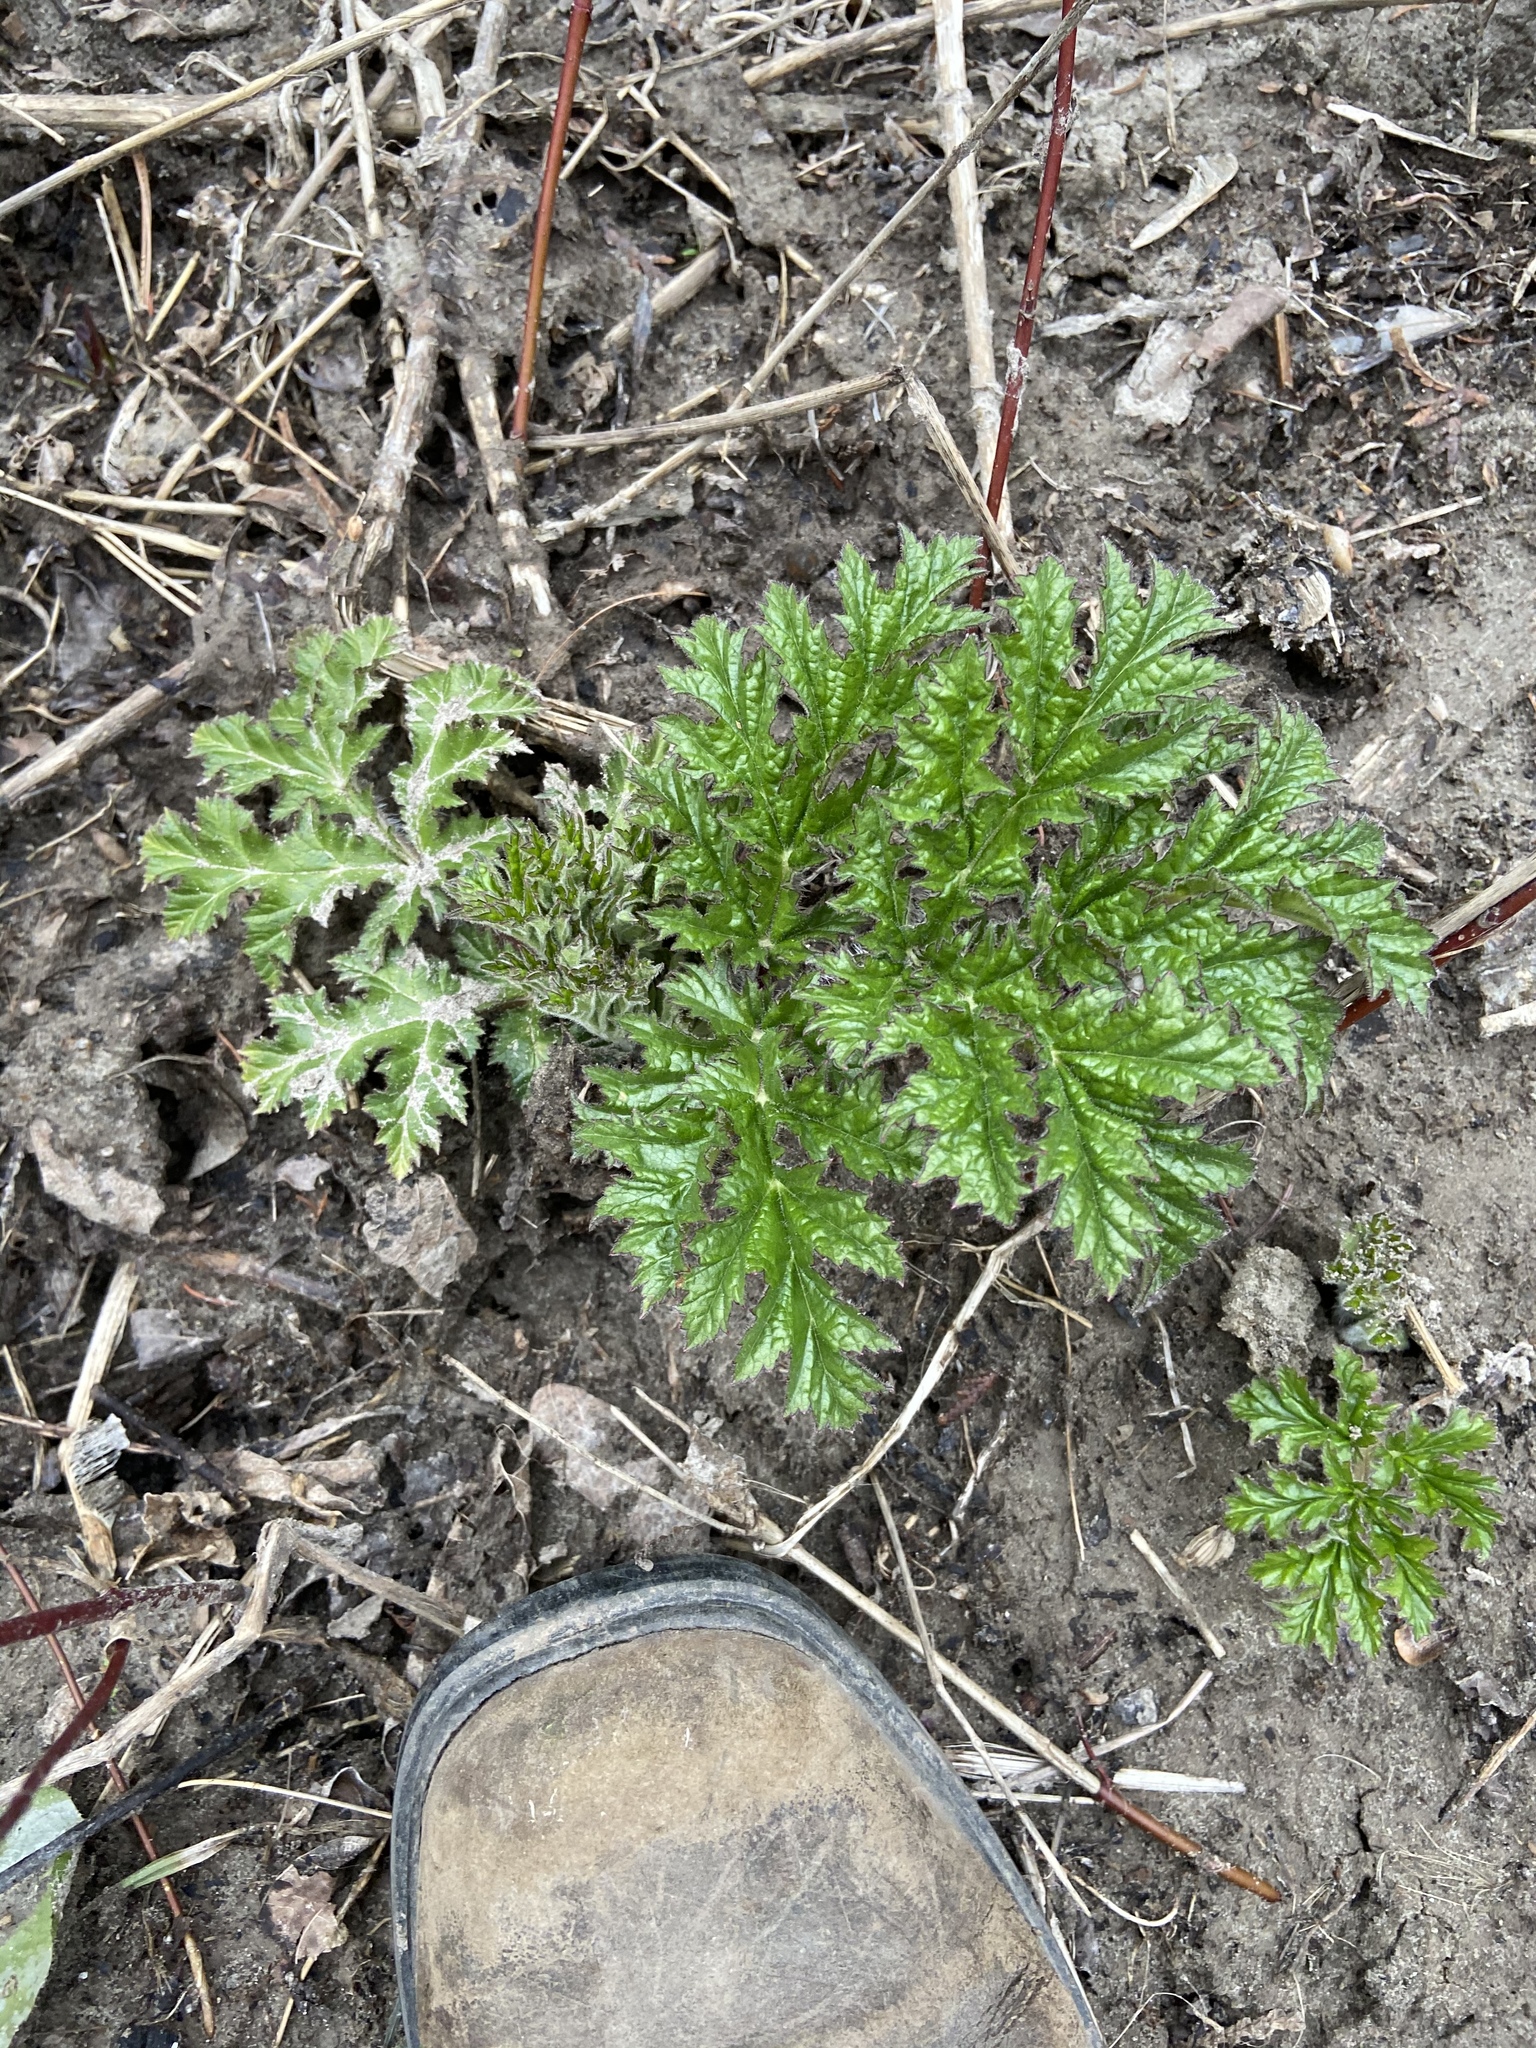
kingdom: Plantae
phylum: Tracheophyta
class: Magnoliopsida
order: Apiales
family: Apiaceae
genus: Heracleum
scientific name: Heracleum mantegazzianum
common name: Giant hogweed
